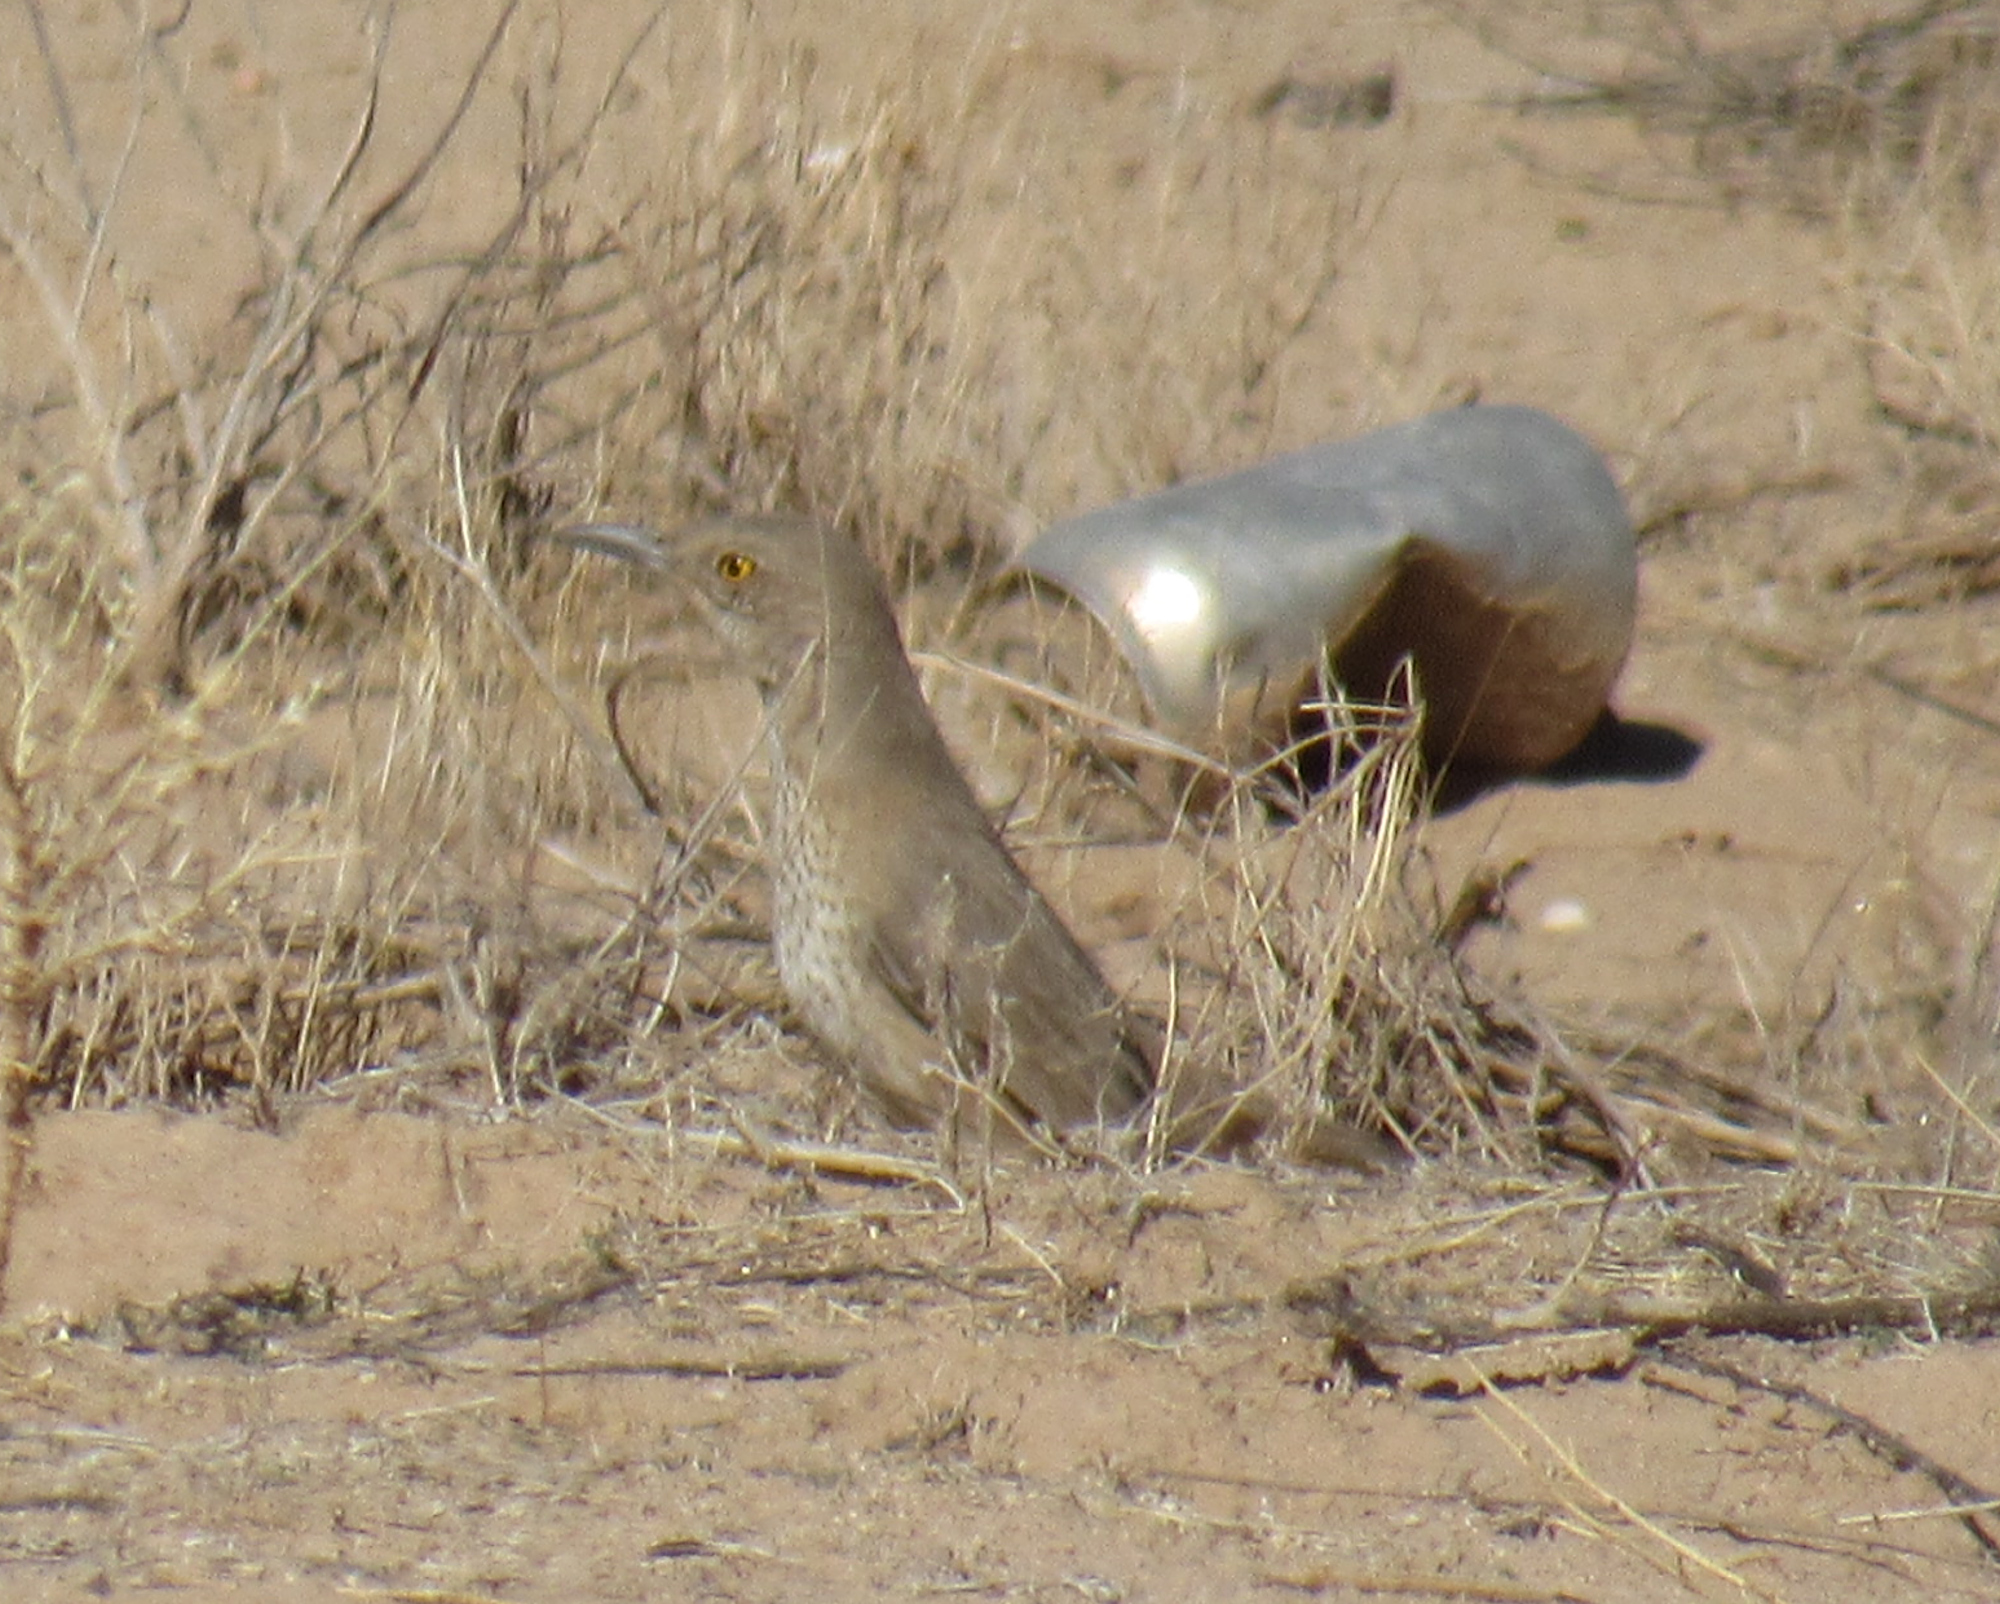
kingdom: Animalia
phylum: Chordata
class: Aves
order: Passeriformes
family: Mimidae
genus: Toxostoma
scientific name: Toxostoma bendirei
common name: Bendire's thrasher
